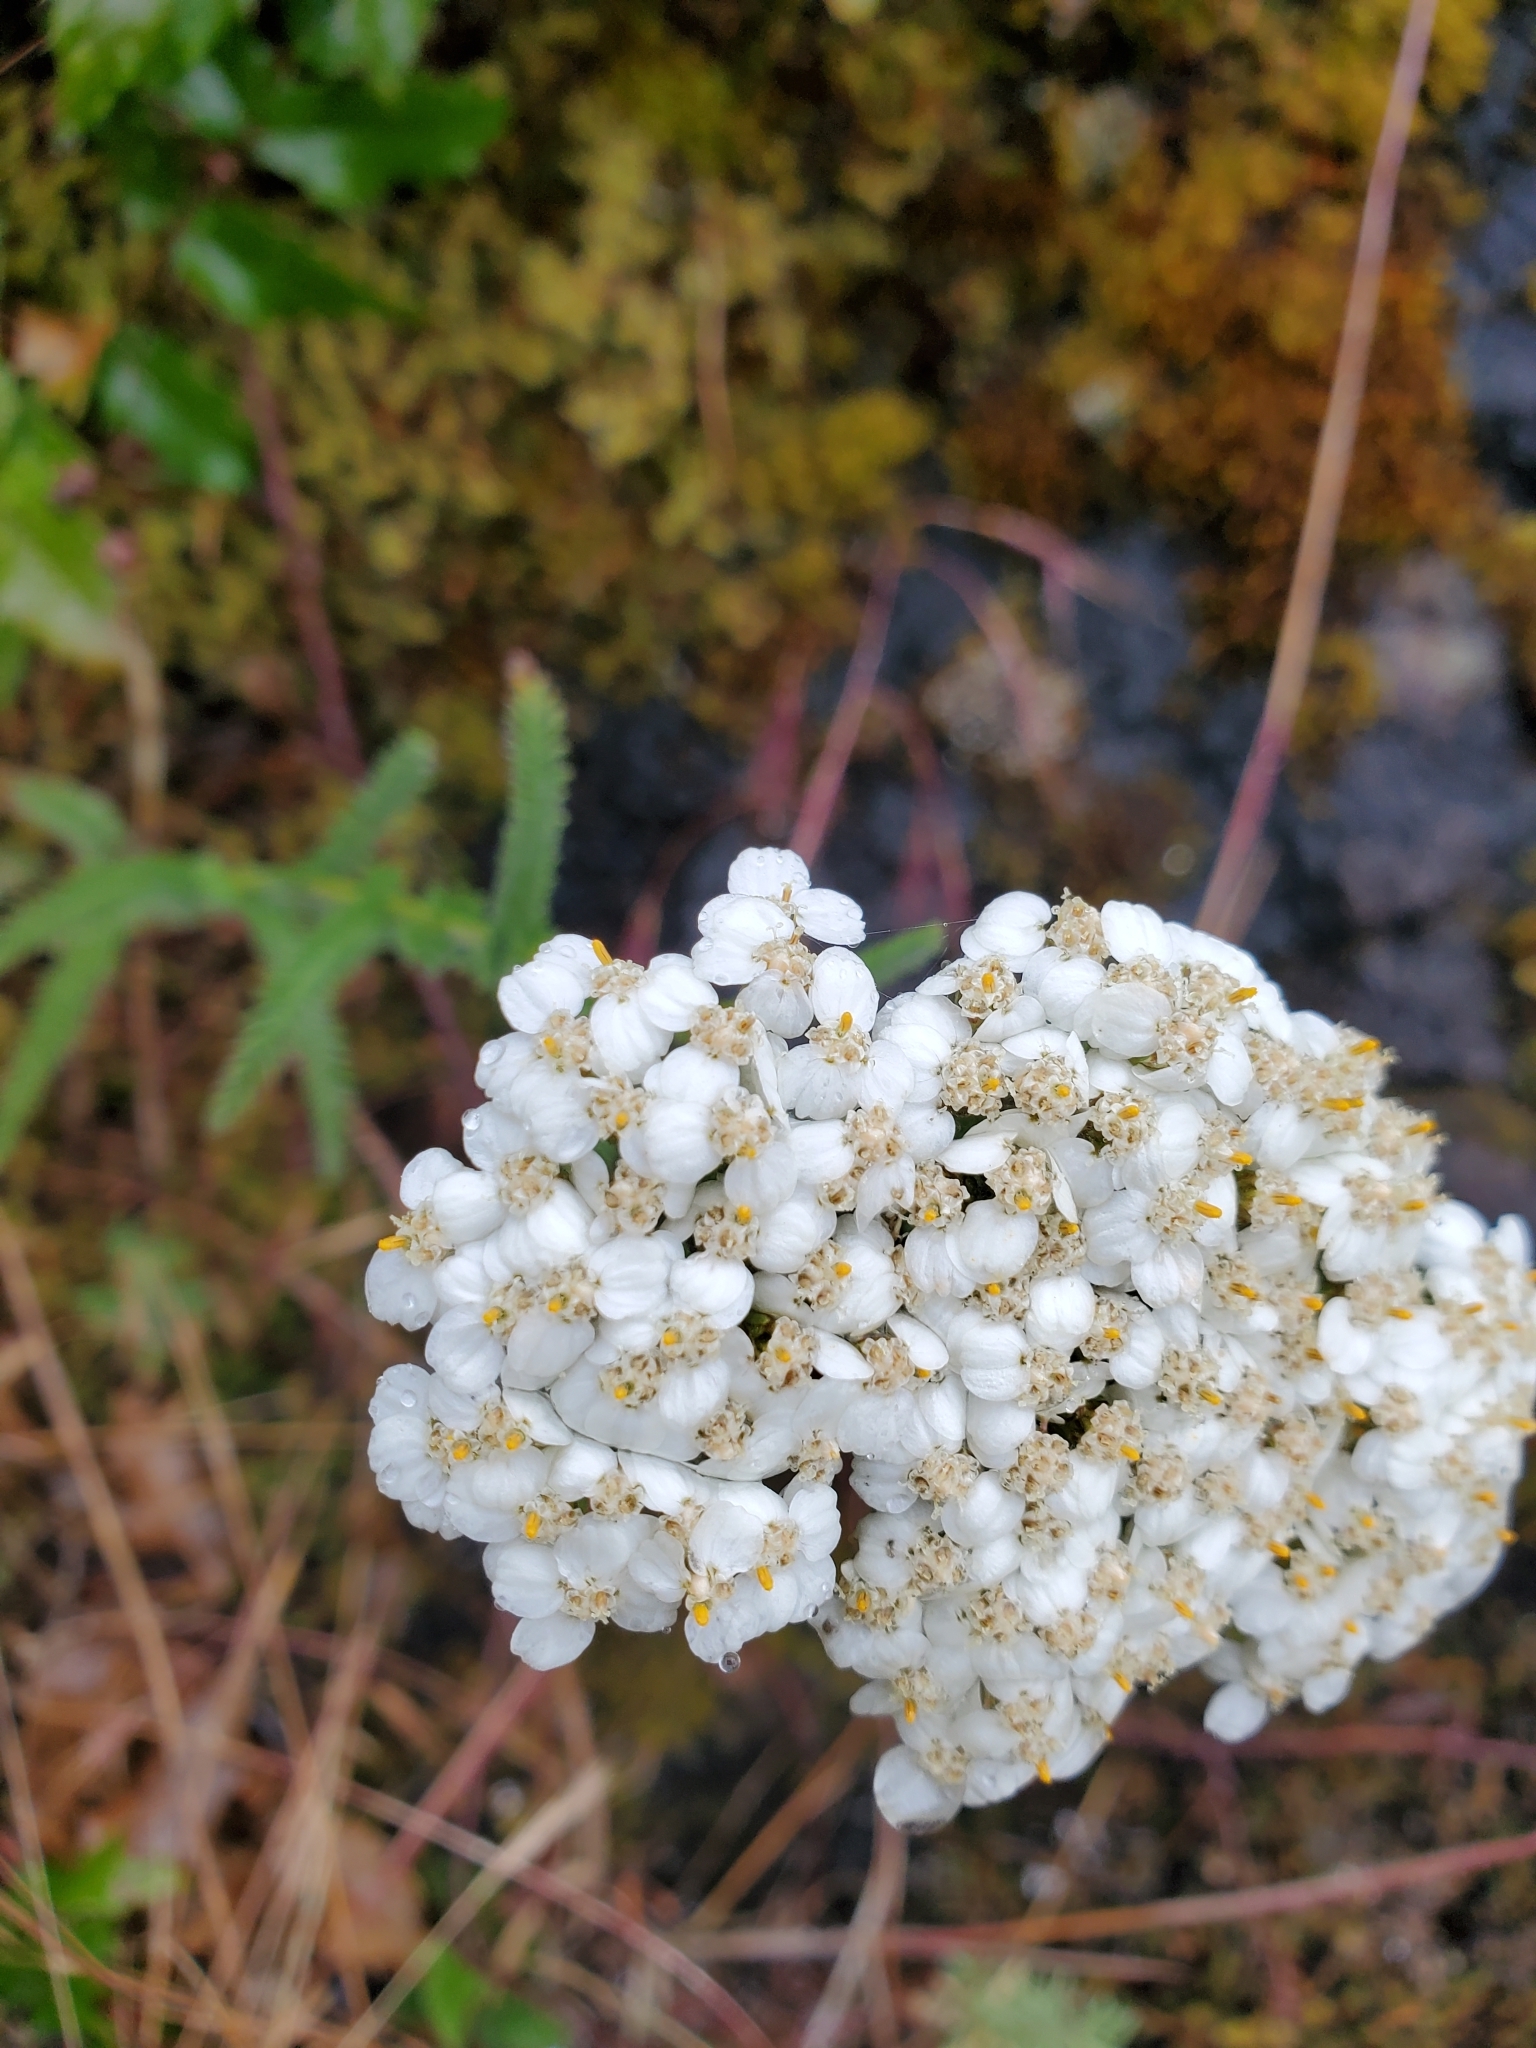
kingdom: Plantae
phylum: Tracheophyta
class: Magnoliopsida
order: Asterales
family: Asteraceae
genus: Achillea
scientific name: Achillea millefolium
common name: Yarrow
